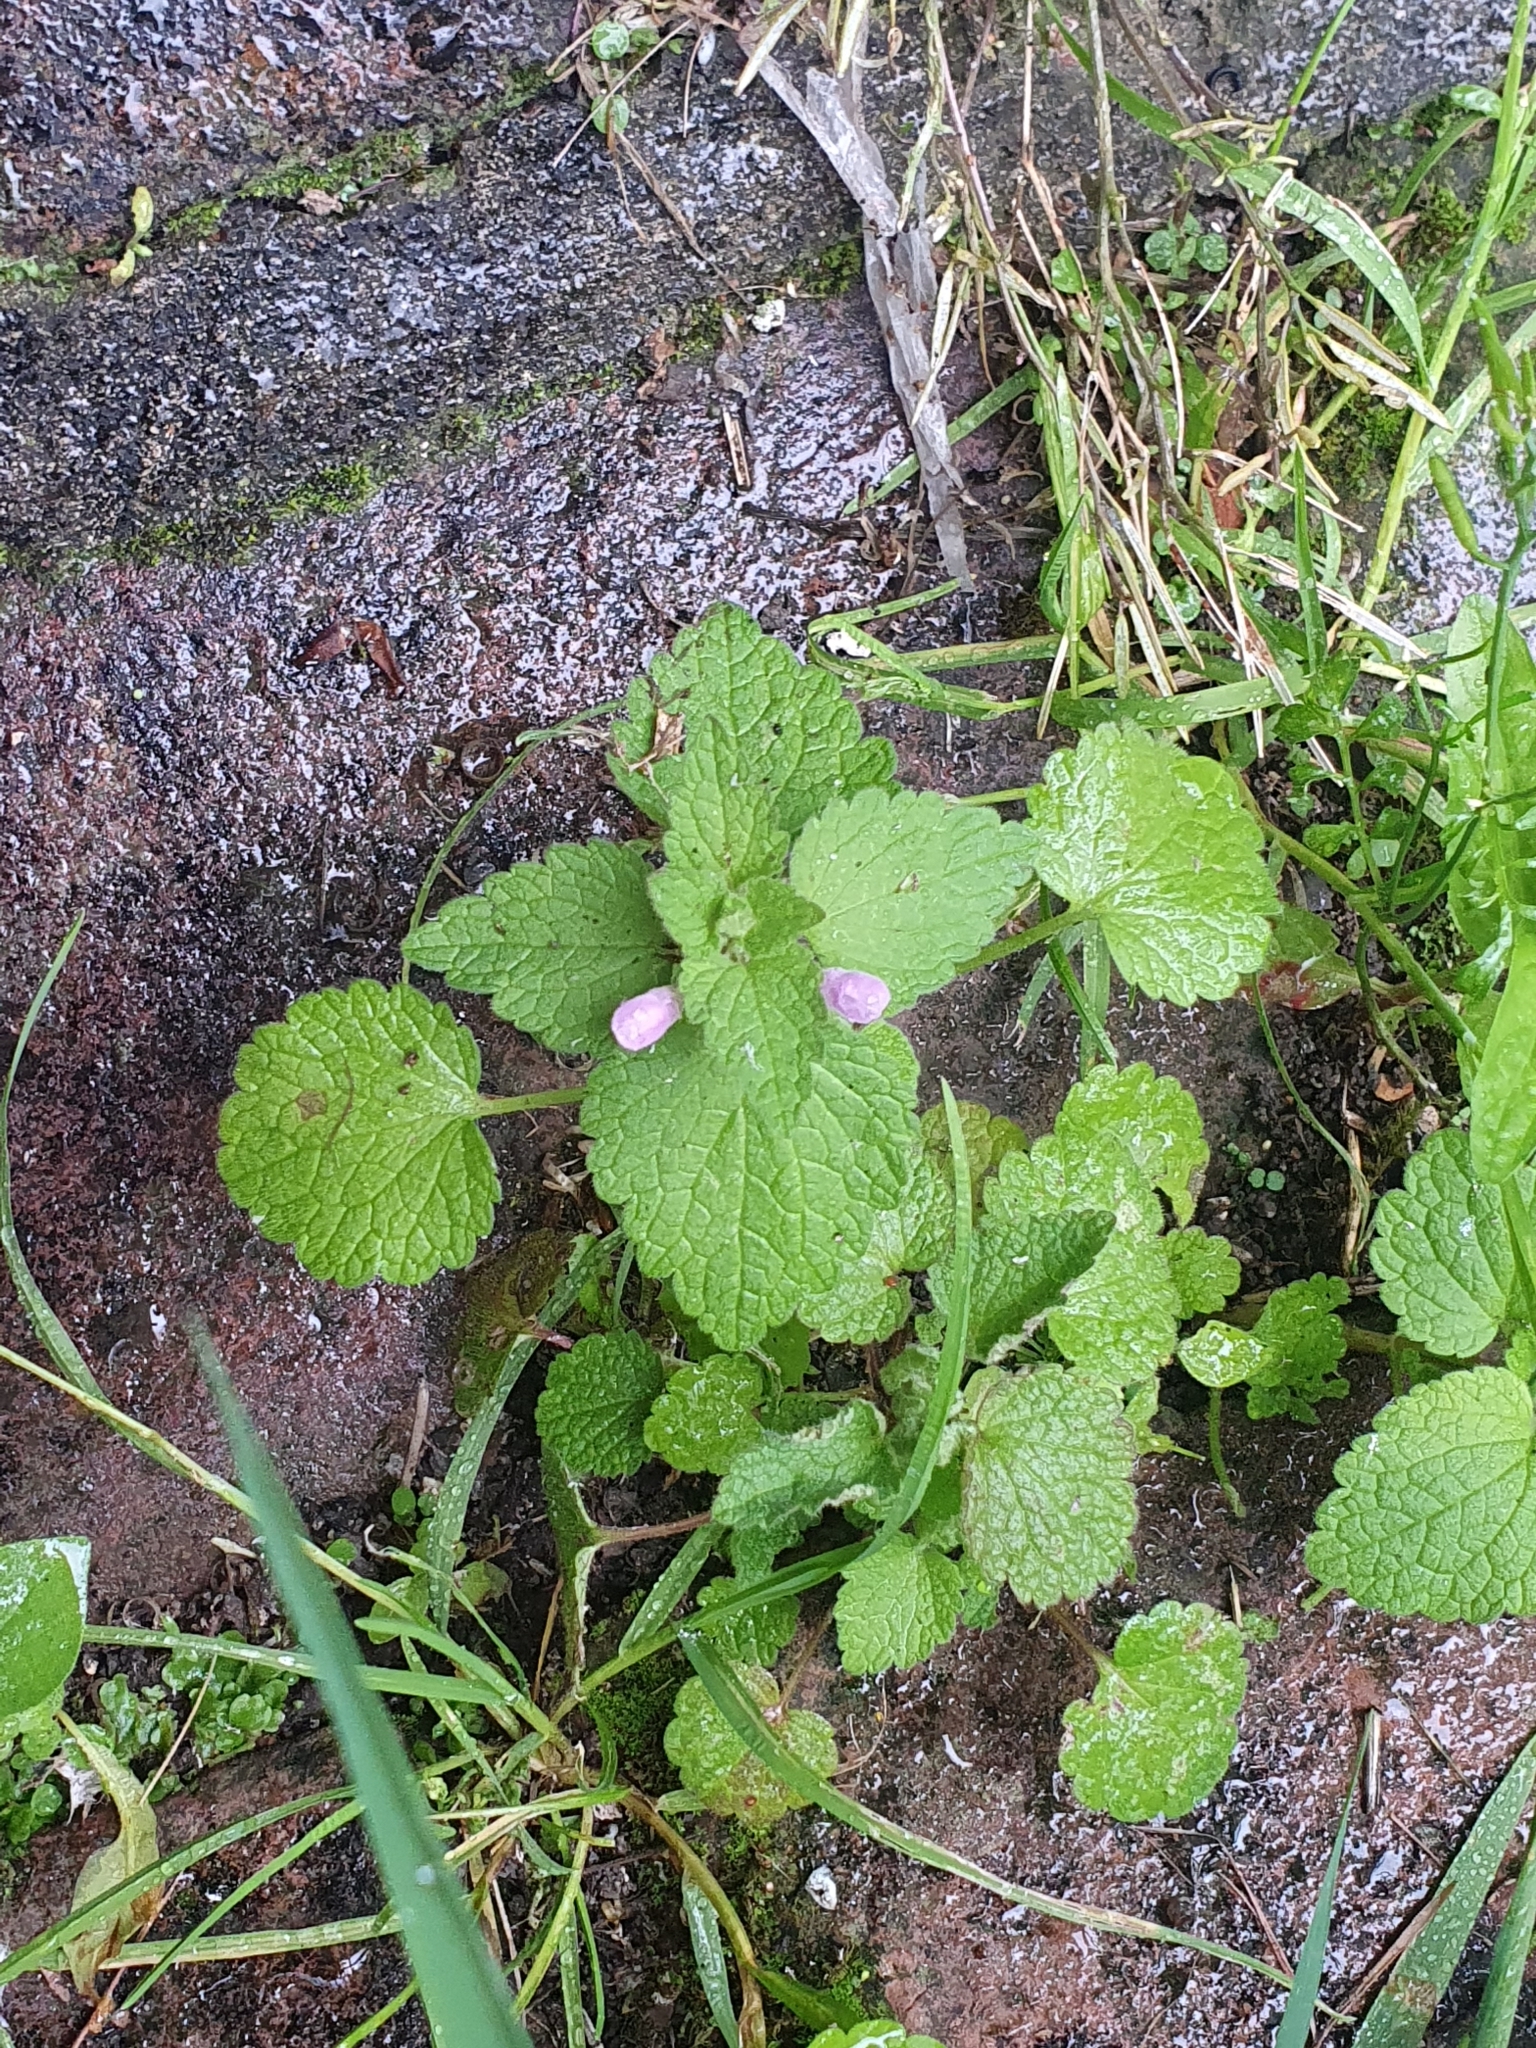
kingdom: Plantae
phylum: Tracheophyta
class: Magnoliopsida
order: Lamiales
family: Lamiaceae
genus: Lamium
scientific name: Lamium purpureum
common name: Red dead-nettle
